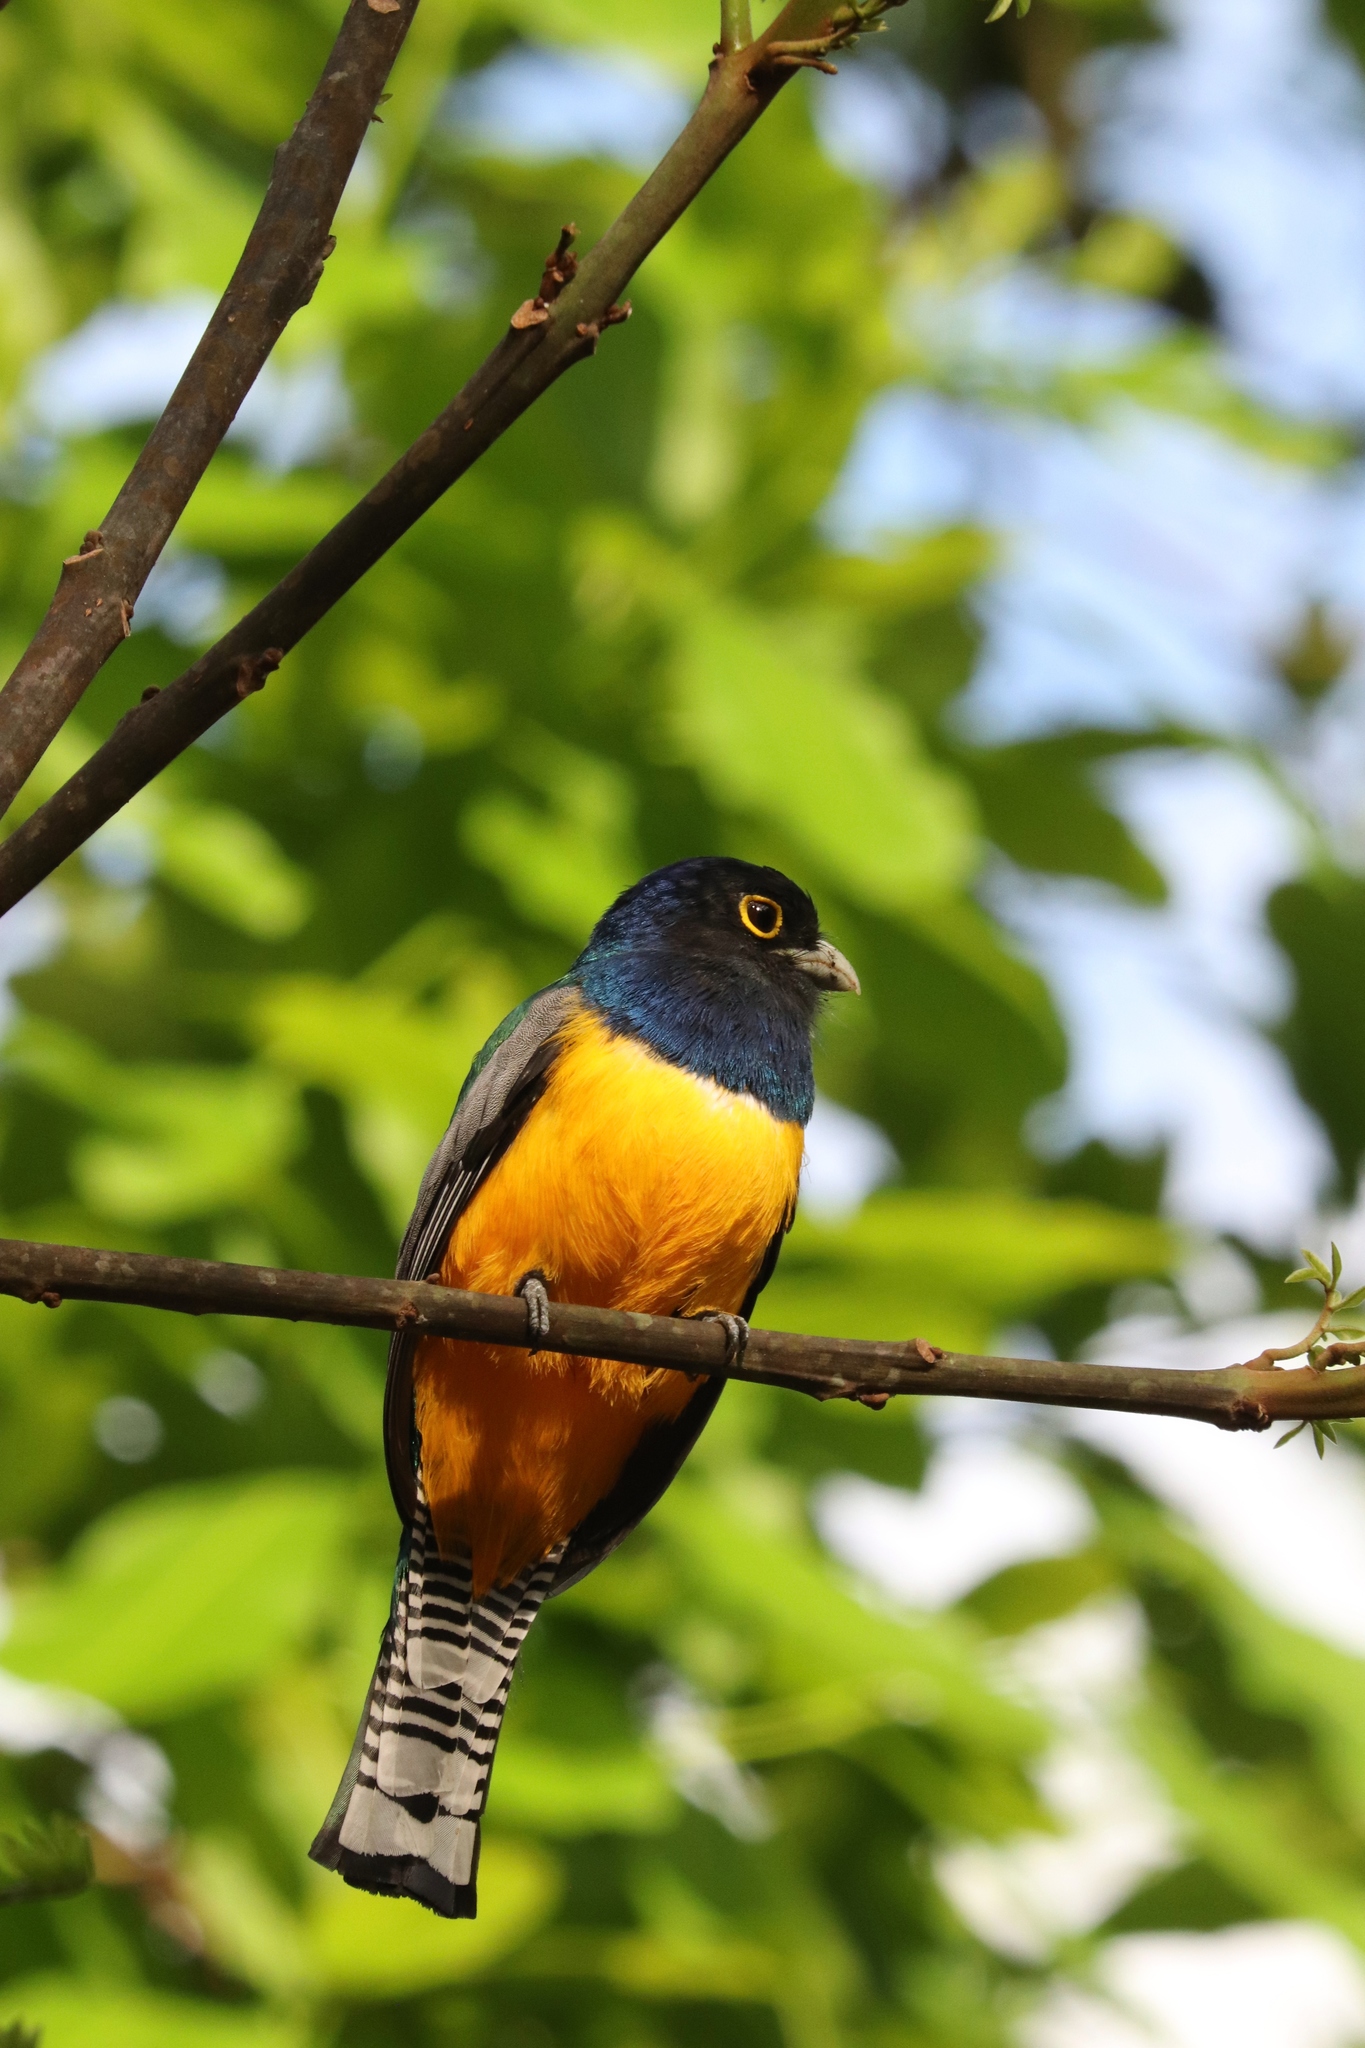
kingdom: Animalia
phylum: Chordata
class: Aves
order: Trogoniformes
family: Trogonidae
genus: Trogon
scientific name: Trogon caligatus
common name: Gartered trogon
